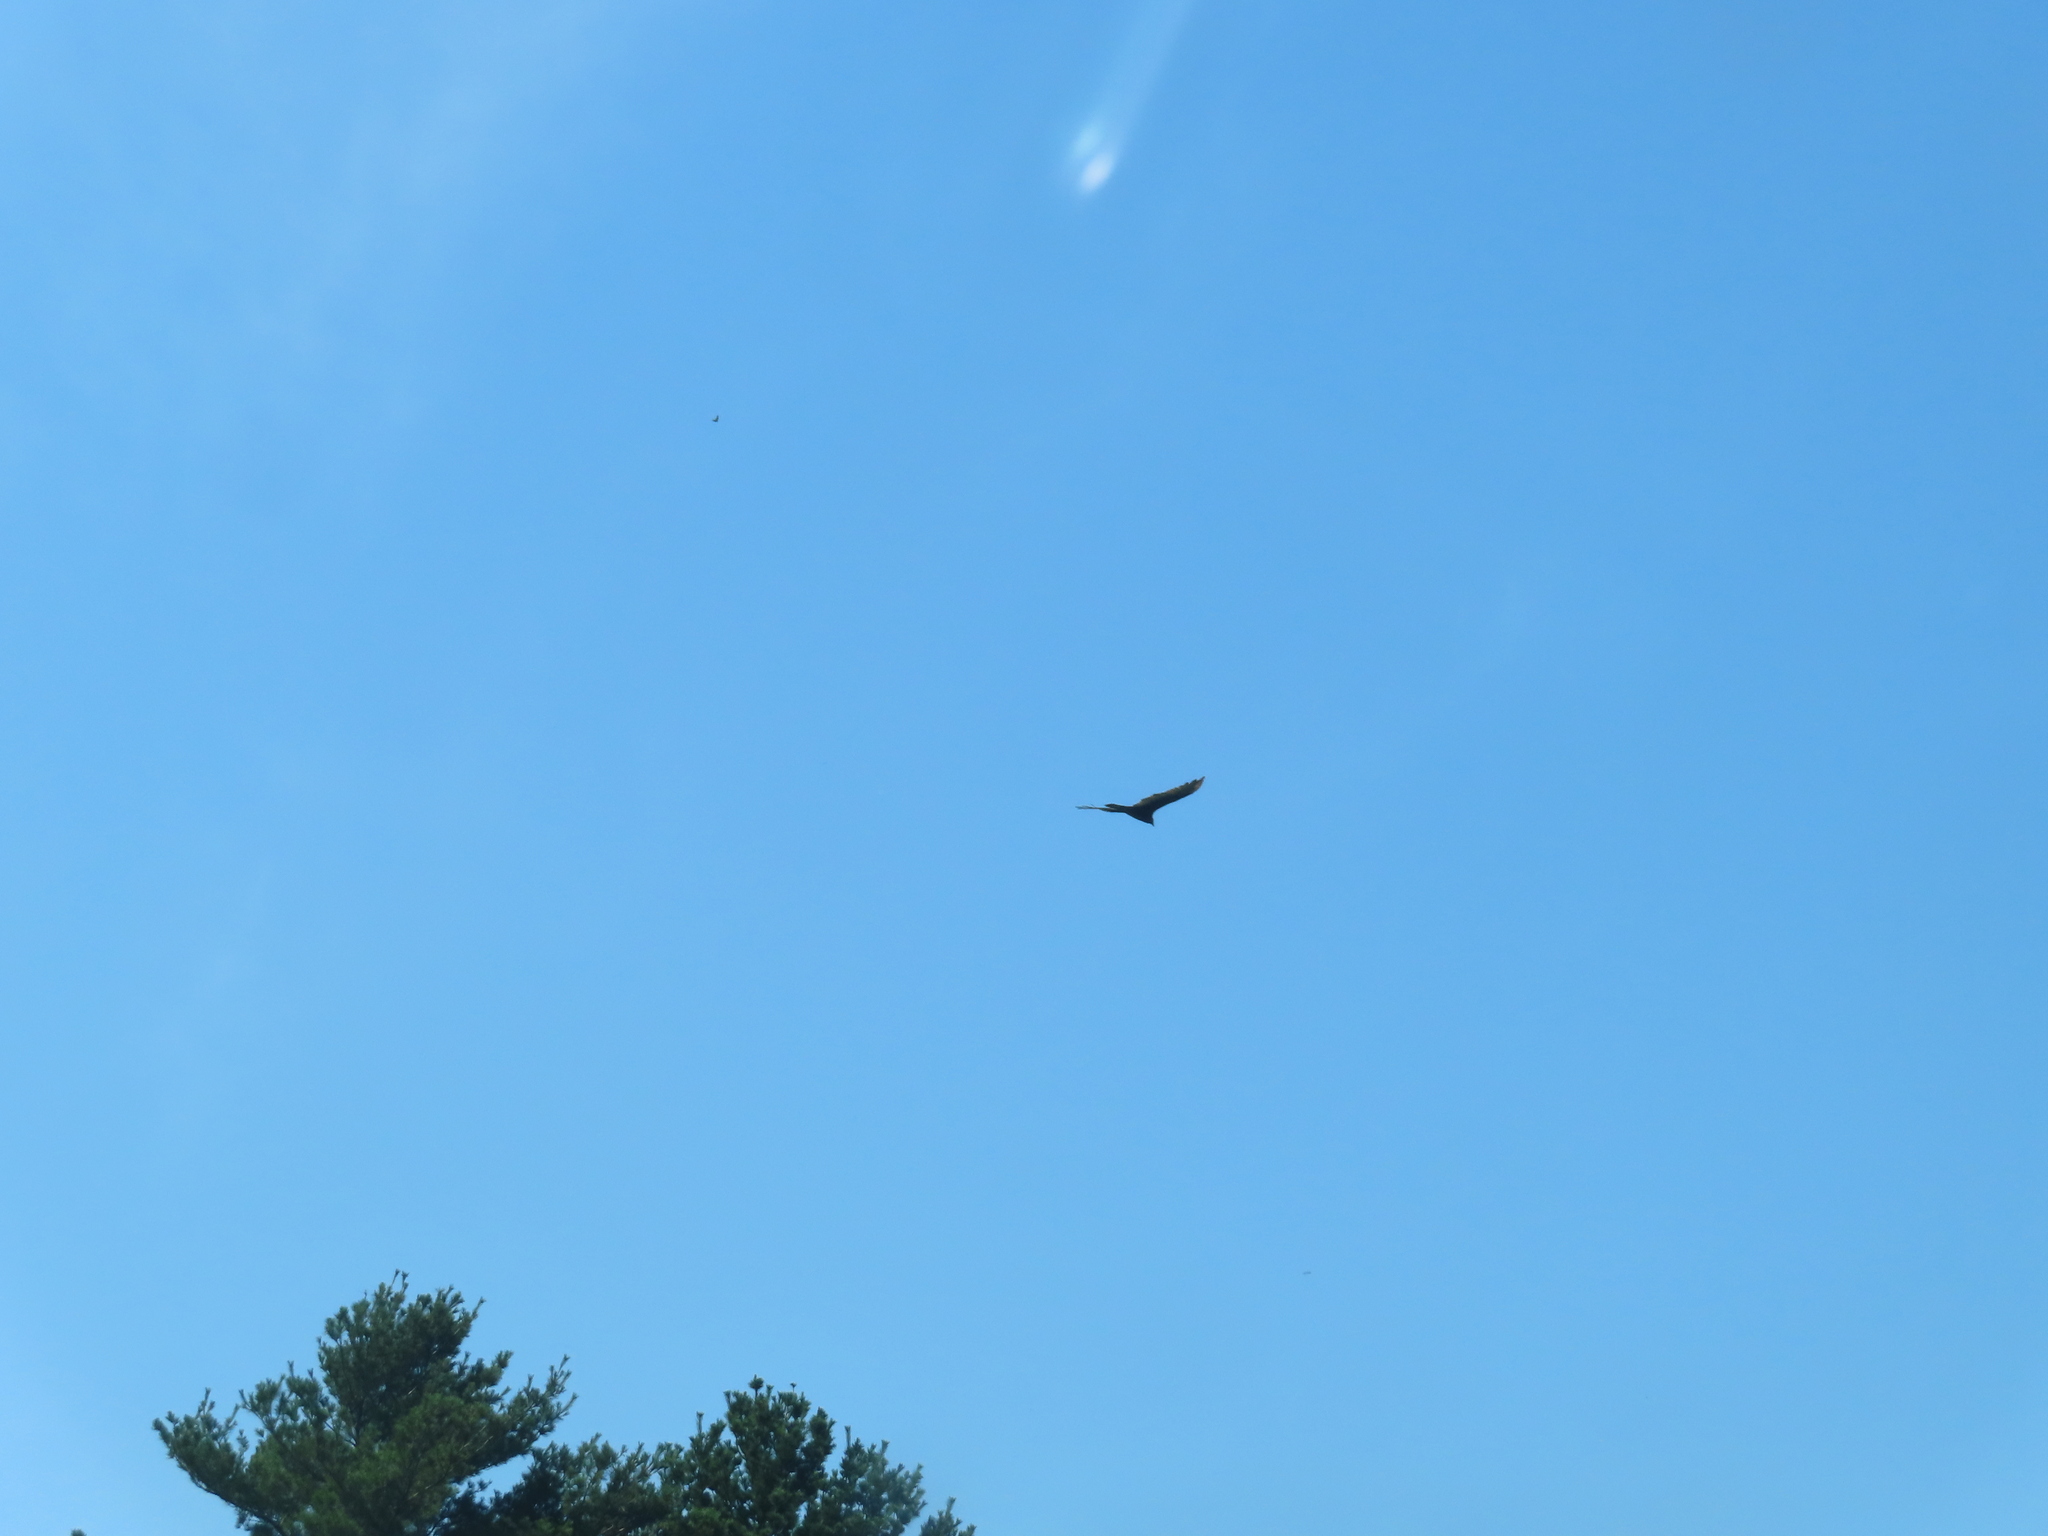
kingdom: Animalia
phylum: Chordata
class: Aves
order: Accipitriformes
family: Cathartidae
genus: Cathartes
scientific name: Cathartes aura
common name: Turkey vulture
